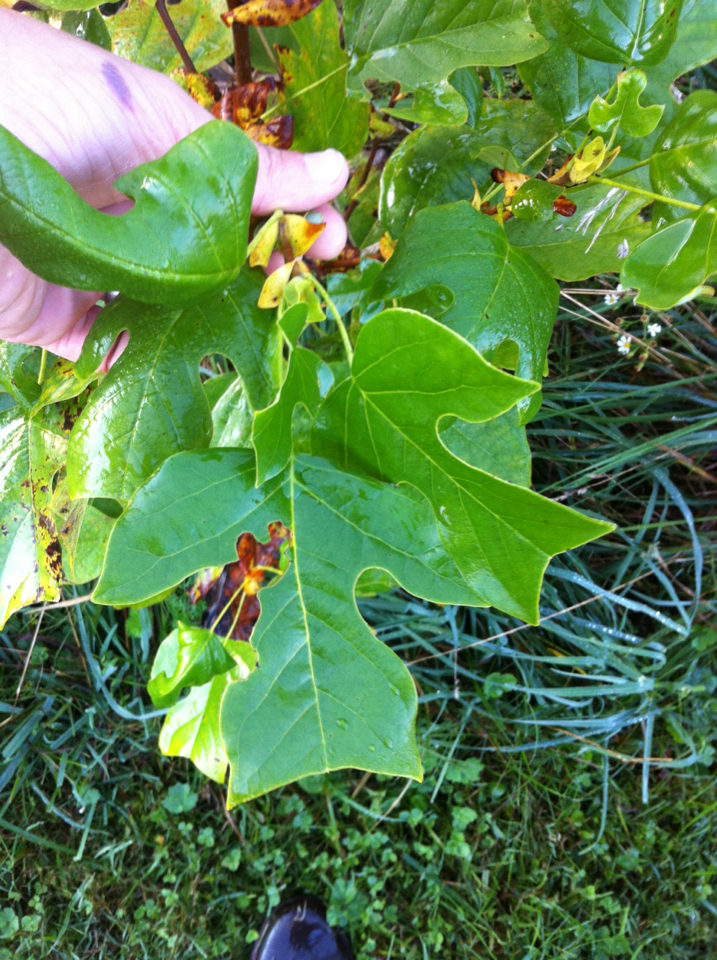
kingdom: Plantae
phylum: Tracheophyta
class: Magnoliopsida
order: Magnoliales
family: Magnoliaceae
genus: Liriodendron
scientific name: Liriodendron tulipifera
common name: Tulip tree
